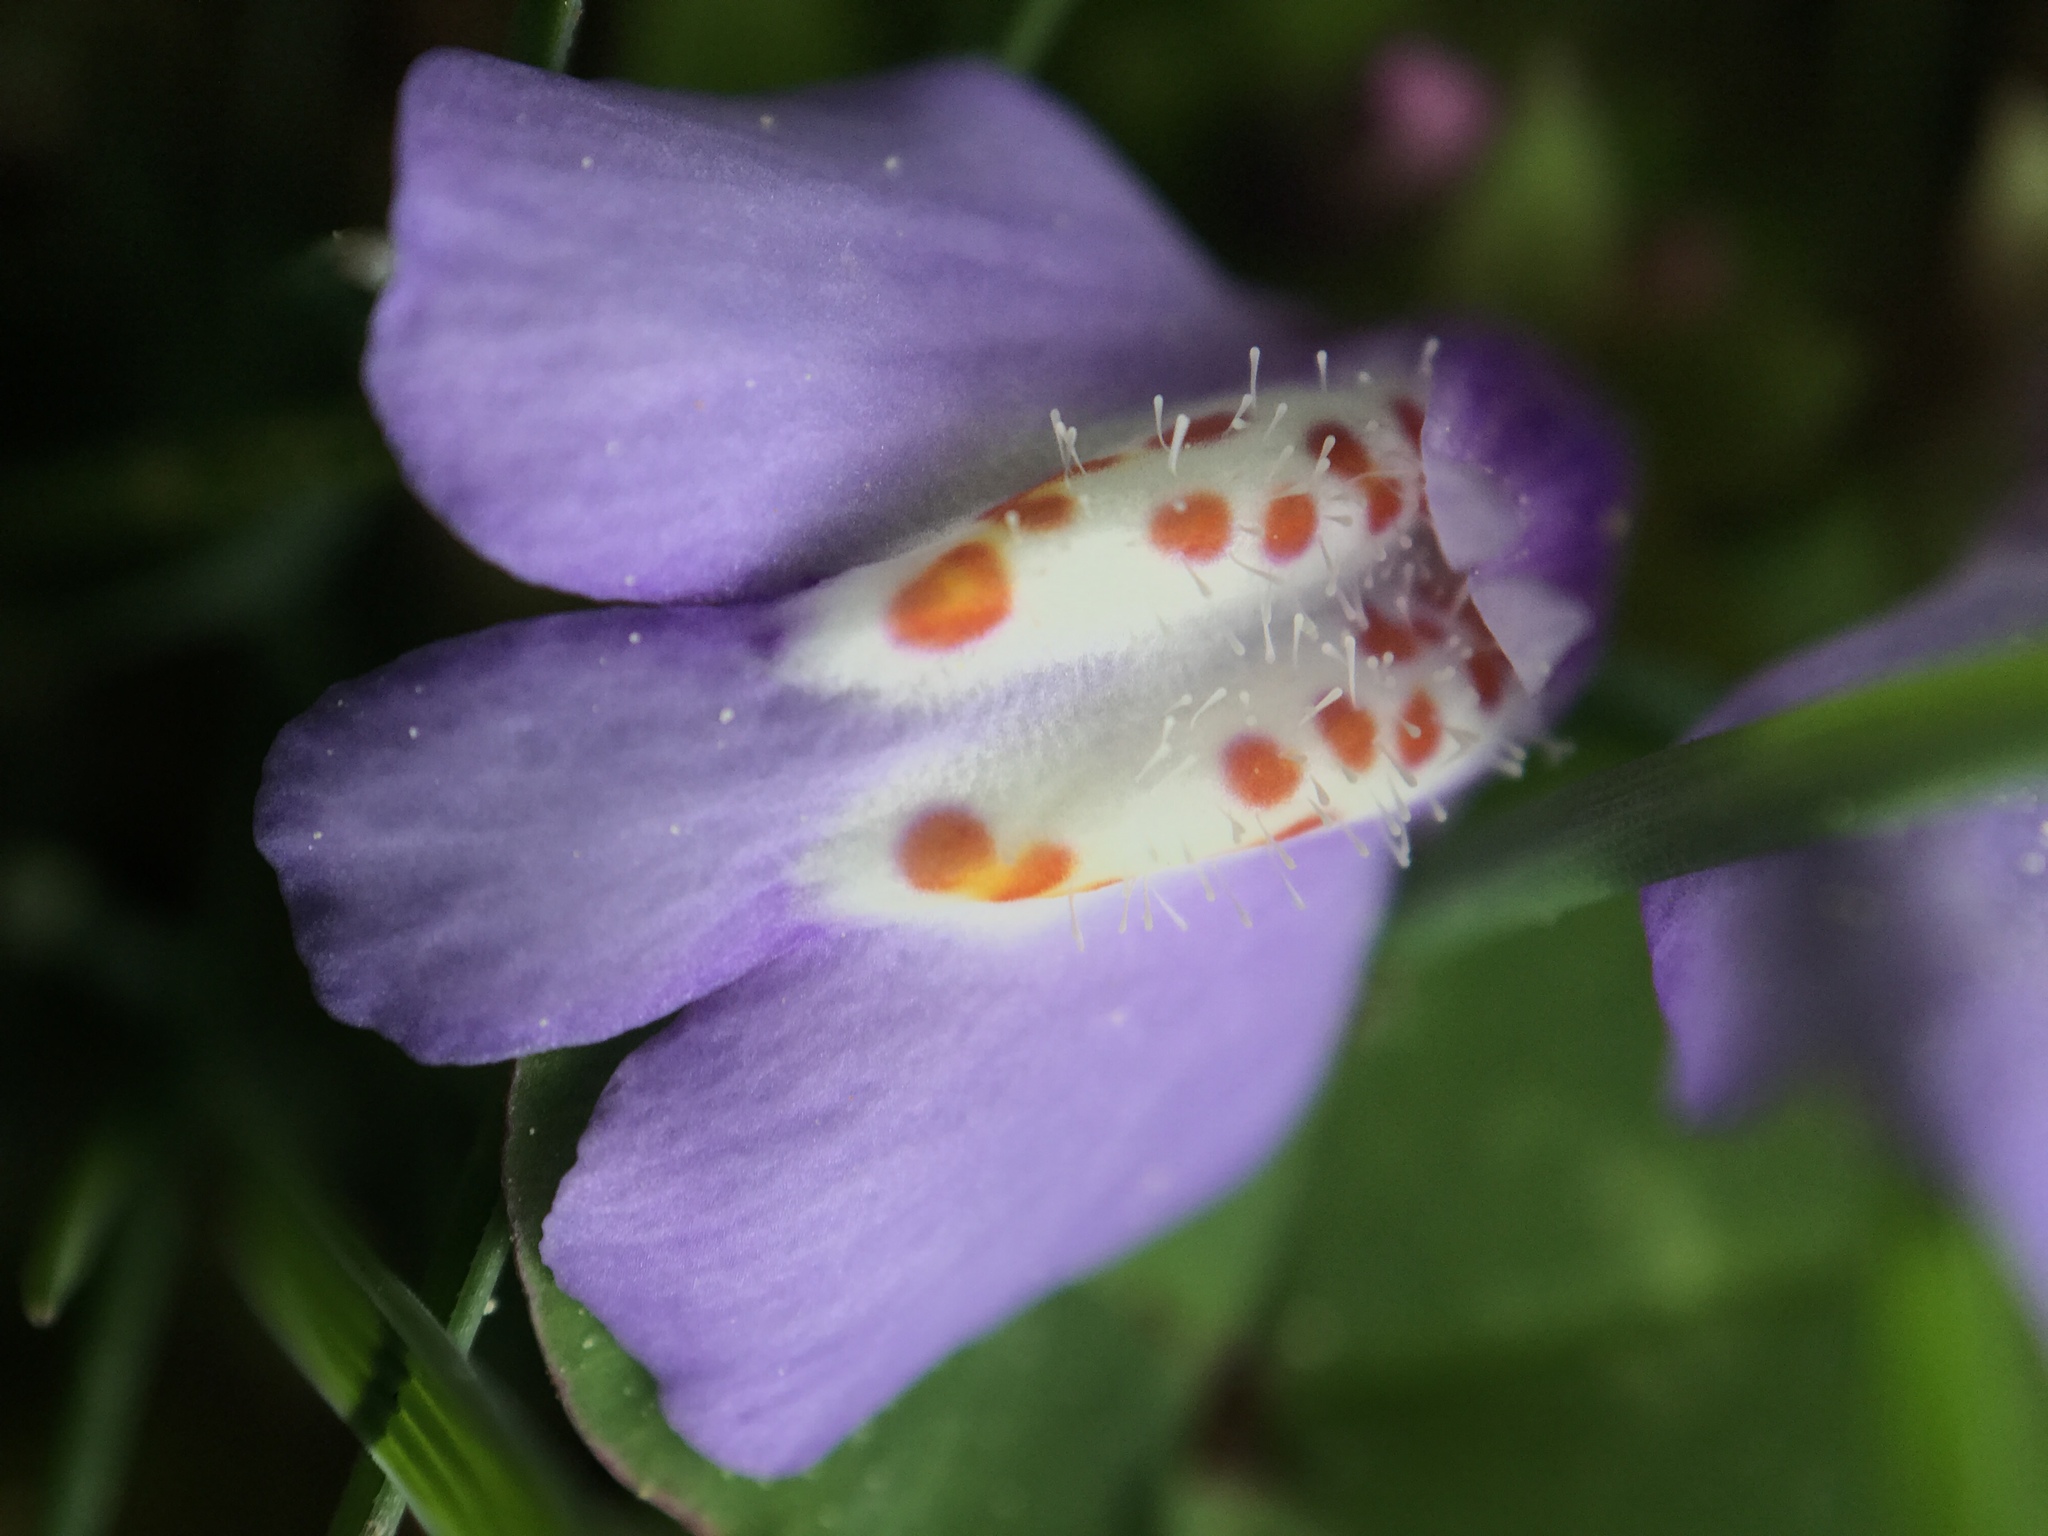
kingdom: Plantae
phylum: Tracheophyta
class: Magnoliopsida
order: Lamiales
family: Mazaceae
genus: Mazus
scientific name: Mazus miquelii
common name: Miquel's mazus
